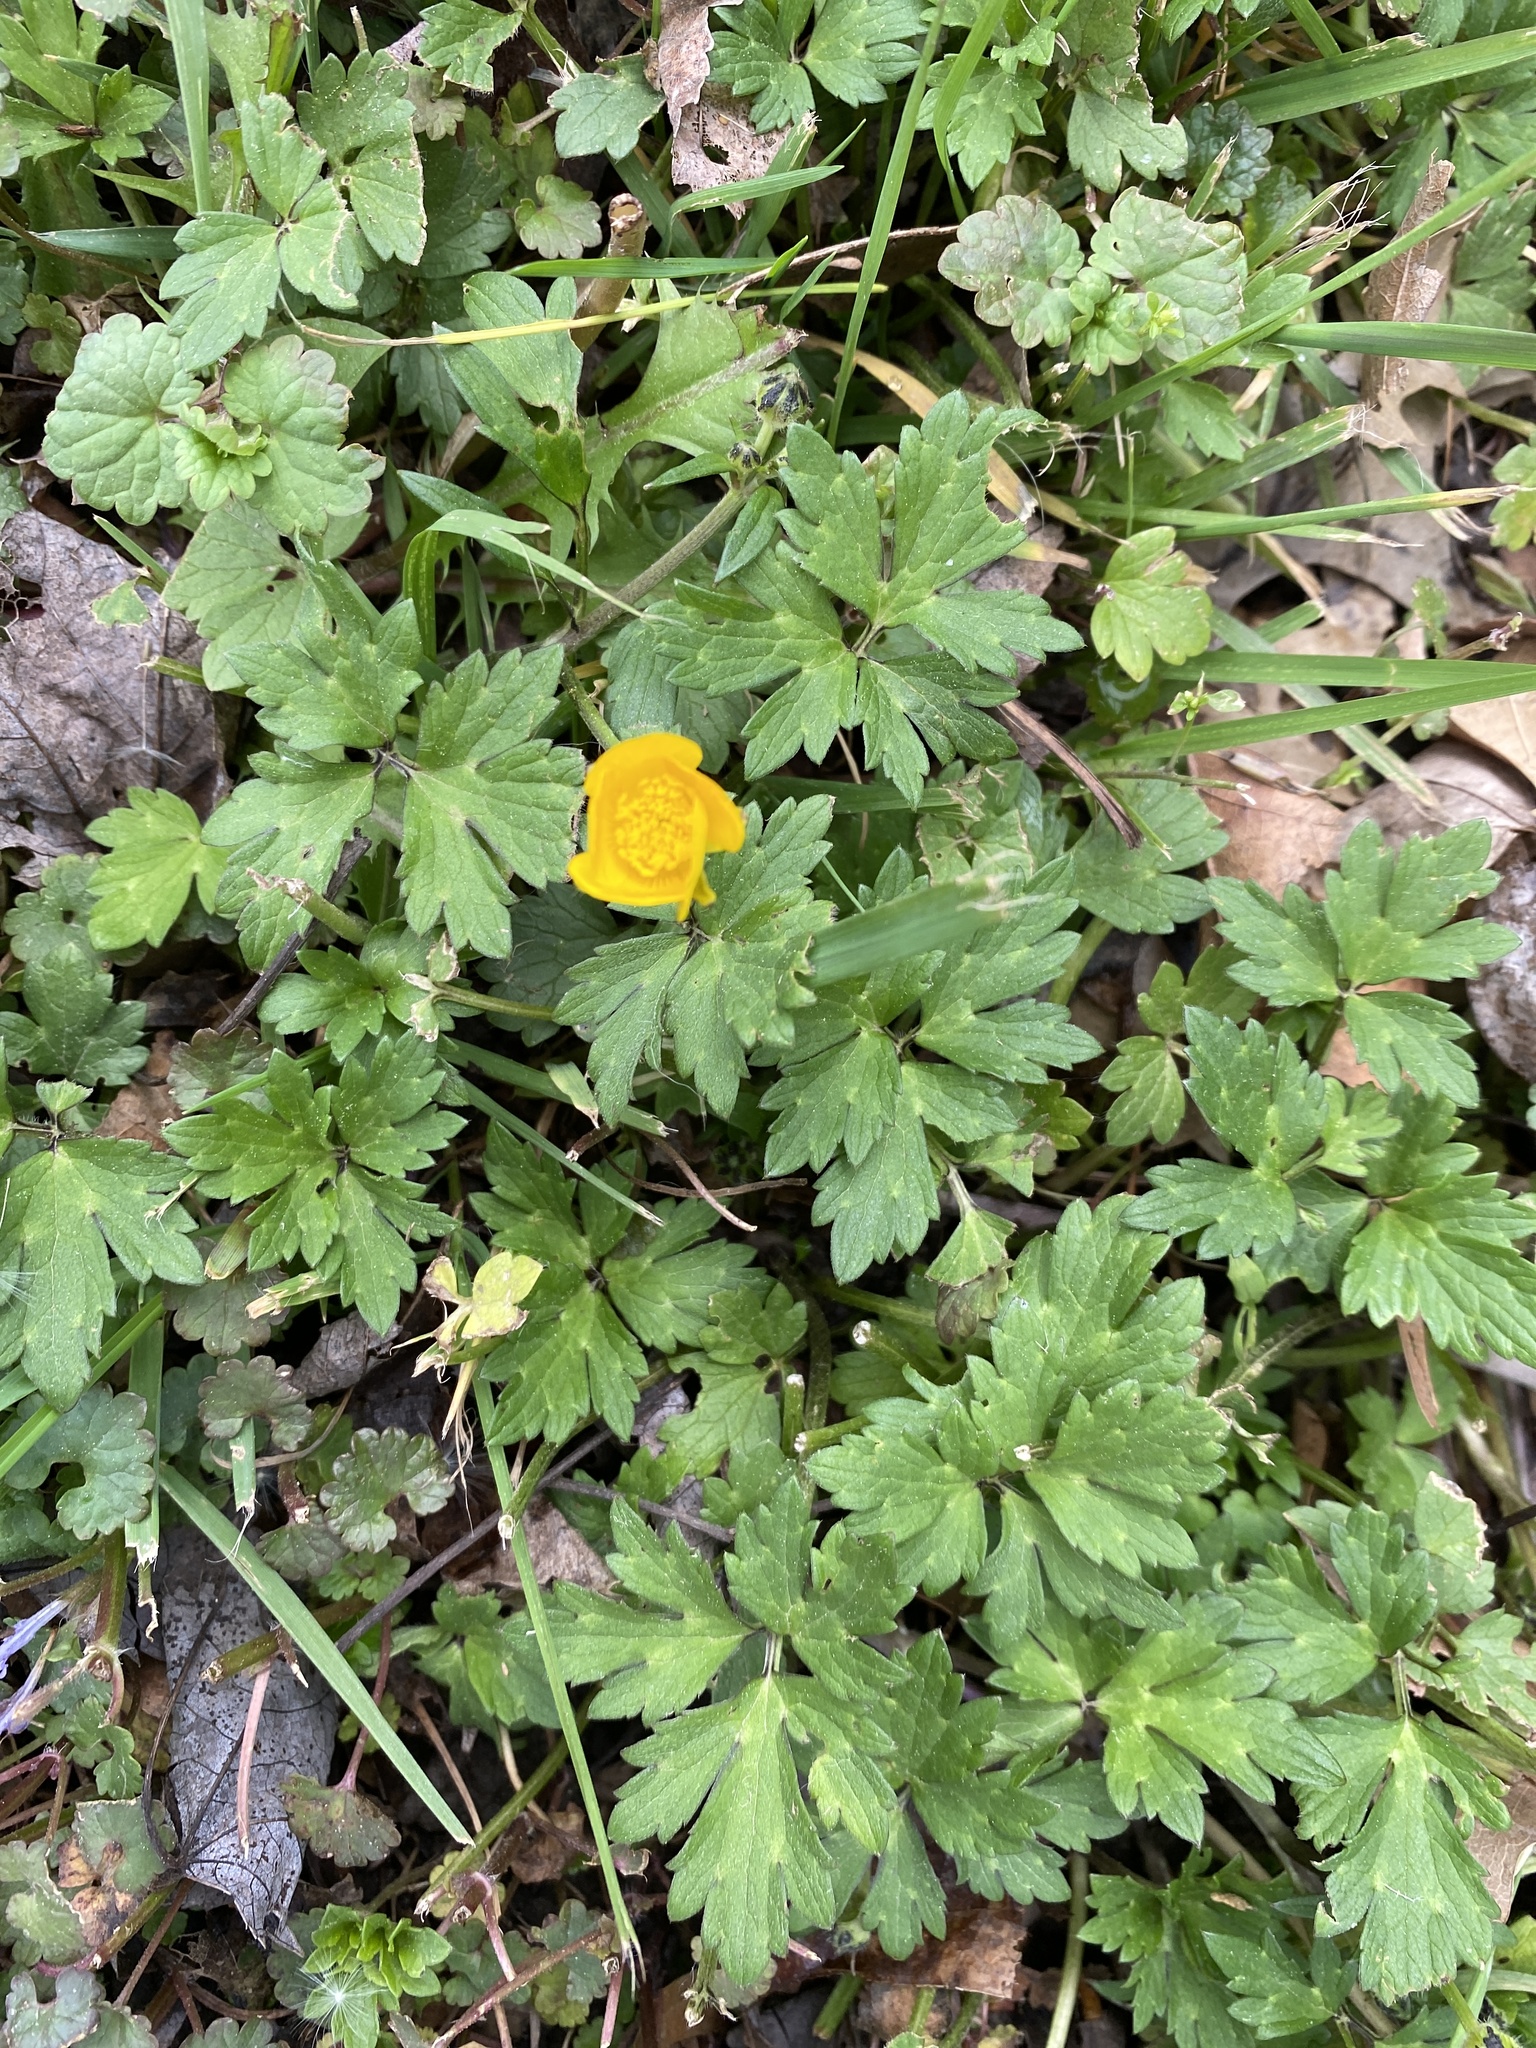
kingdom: Plantae
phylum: Tracheophyta
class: Magnoliopsida
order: Ranunculales
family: Ranunculaceae
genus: Ranunculus
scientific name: Ranunculus repens
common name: Creeping buttercup
